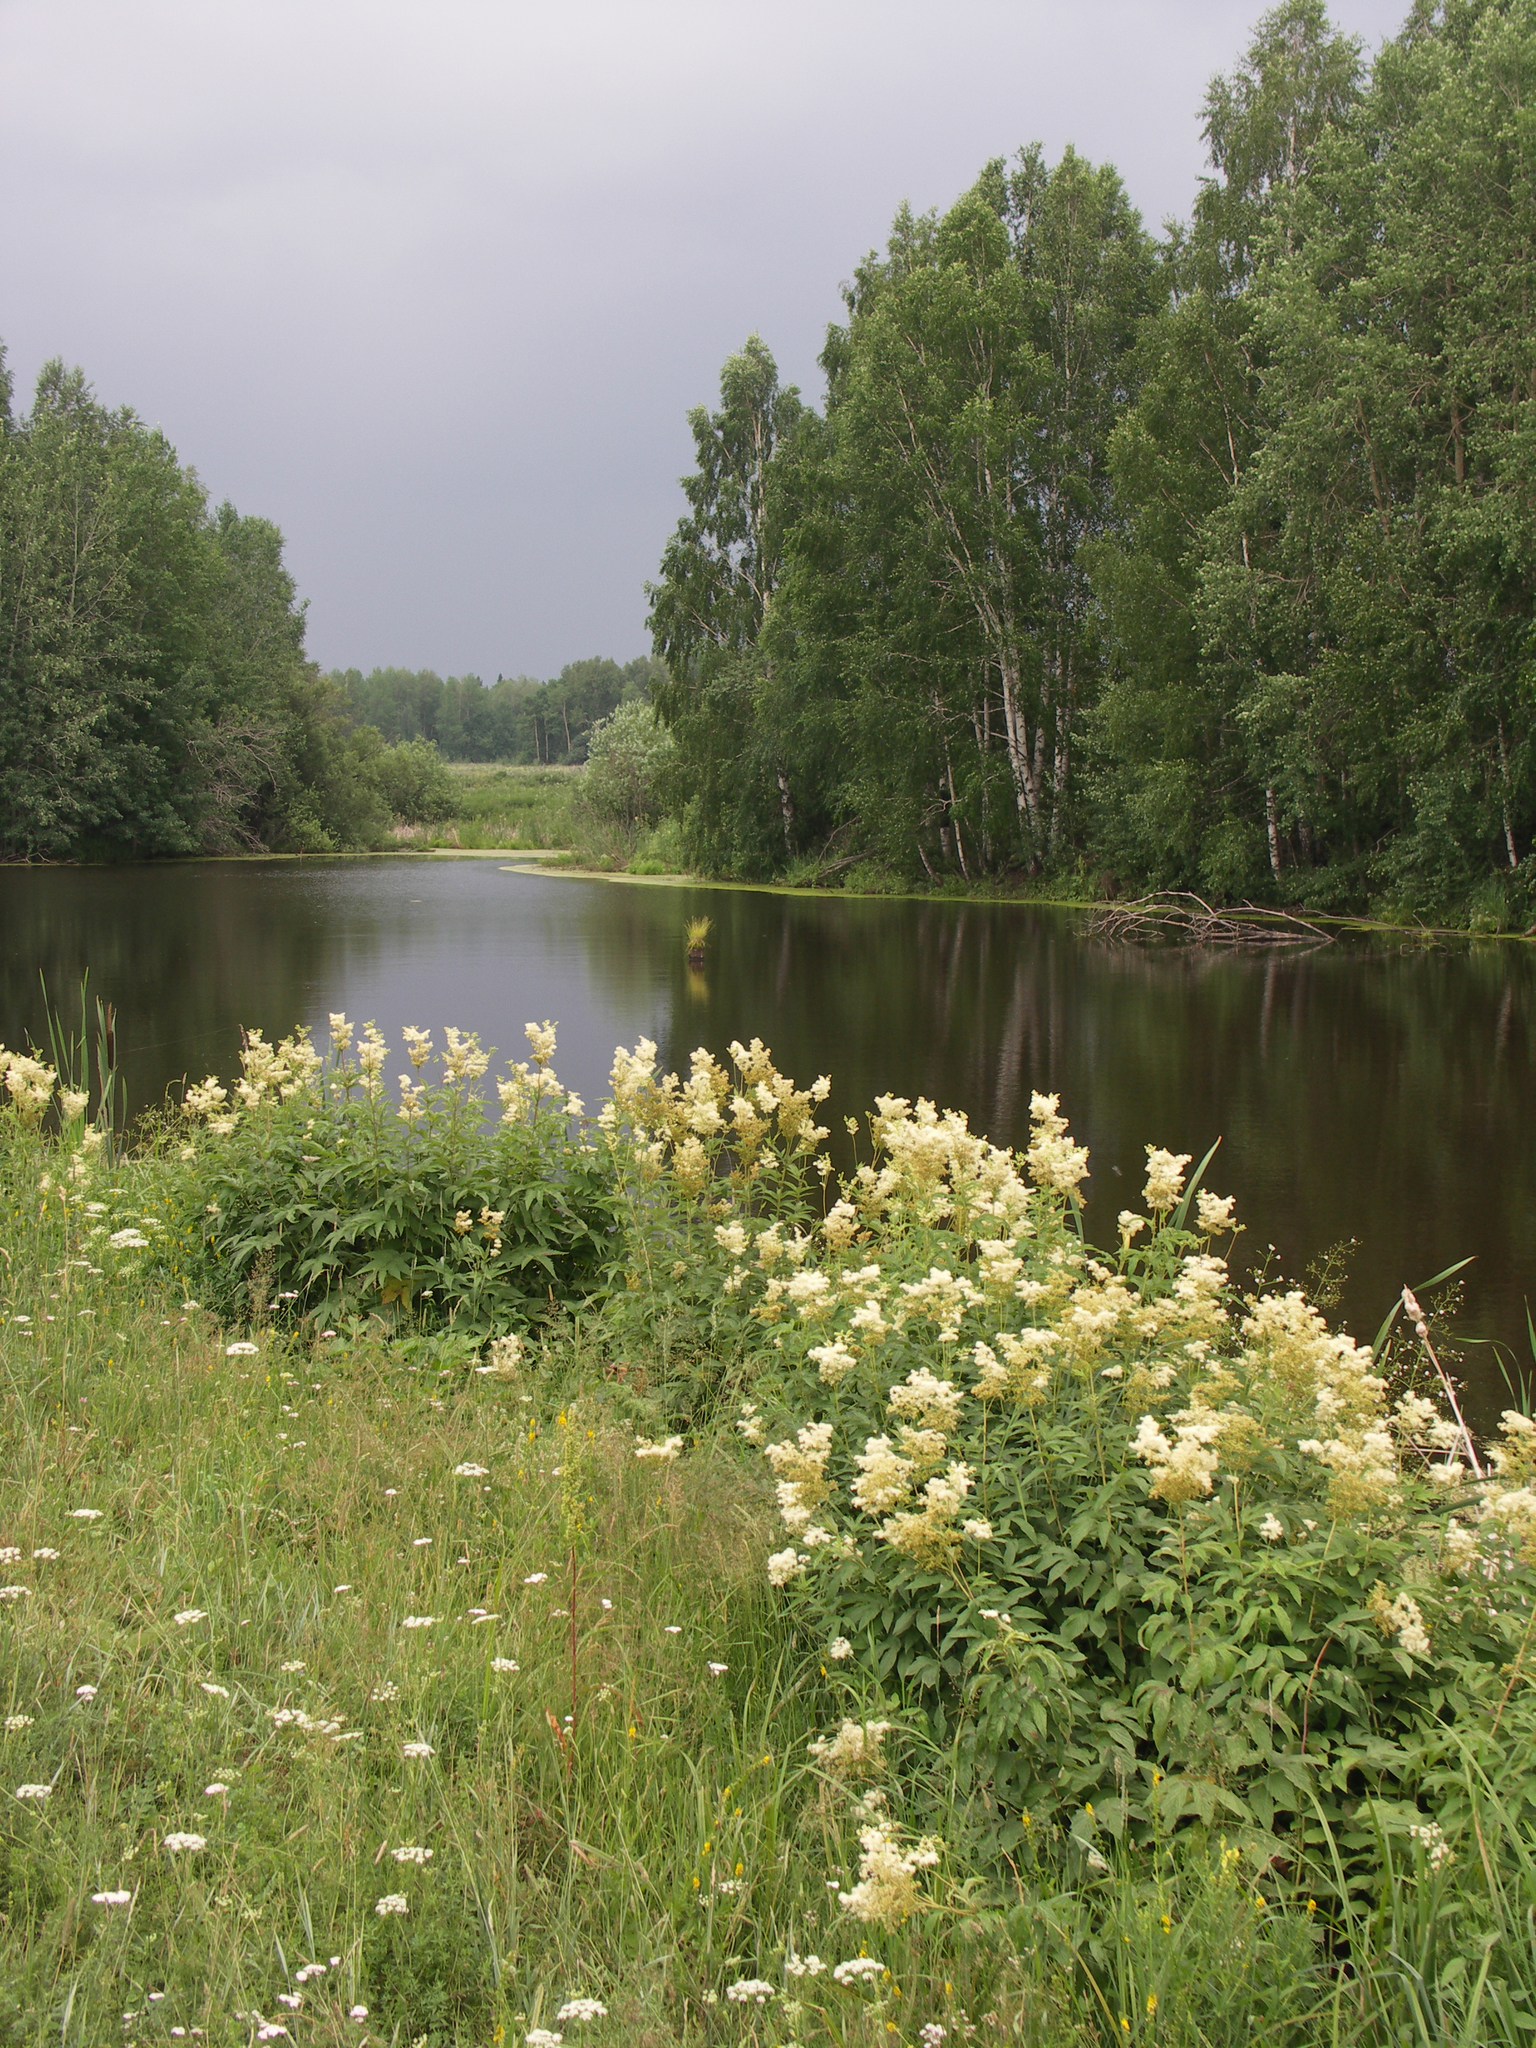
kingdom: Plantae
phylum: Tracheophyta
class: Magnoliopsida
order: Rosales
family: Rosaceae
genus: Filipendula
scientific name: Filipendula ulmaria
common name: Meadowsweet
